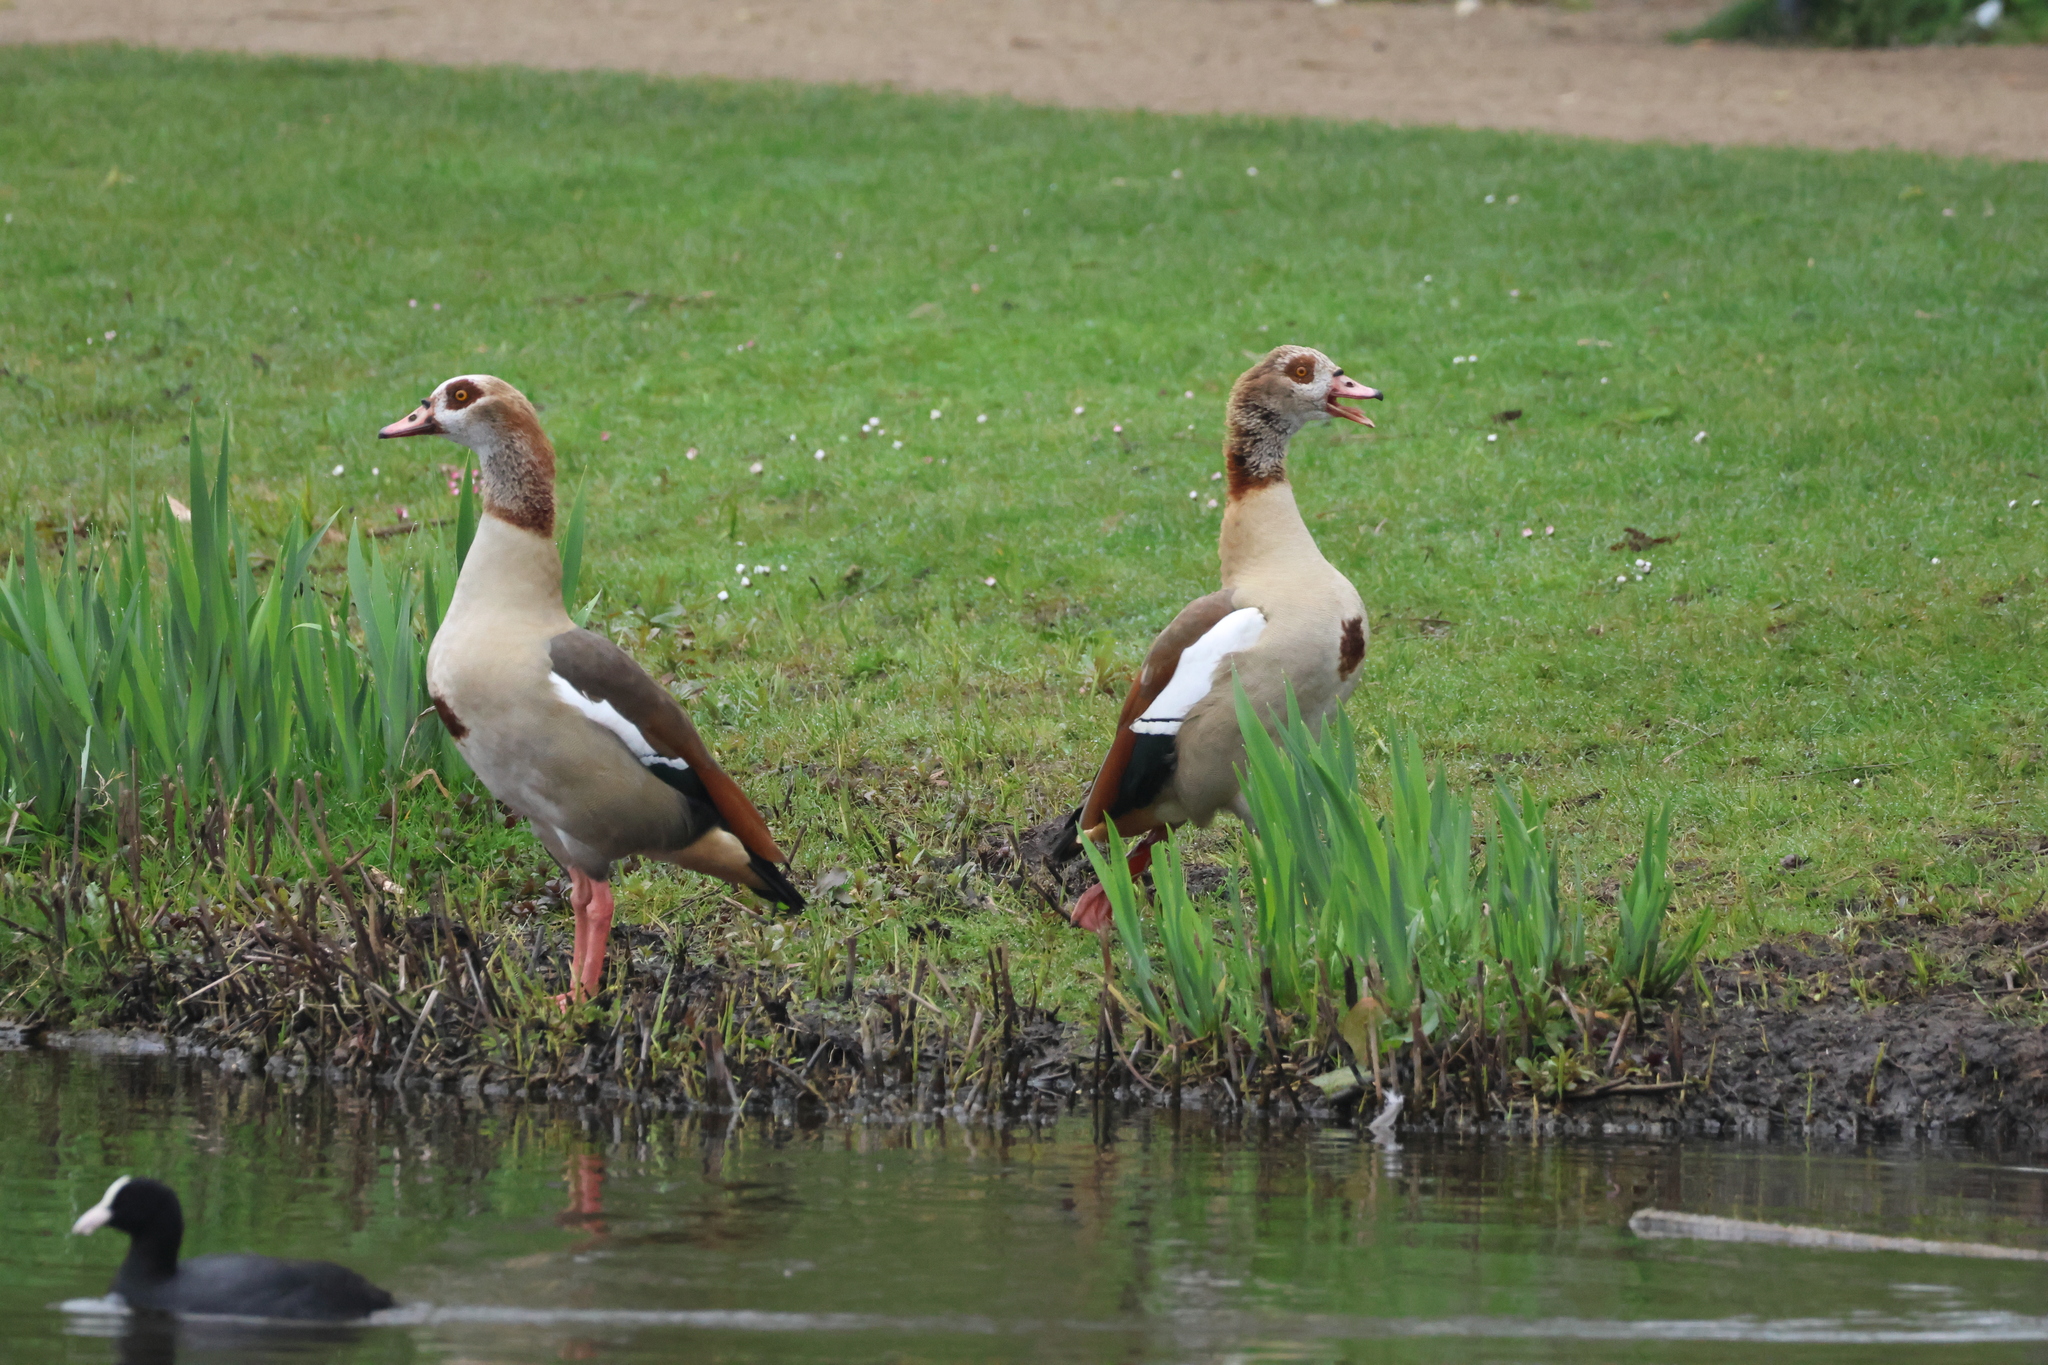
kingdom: Animalia
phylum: Chordata
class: Aves
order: Anseriformes
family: Anatidae
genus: Alopochen
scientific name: Alopochen aegyptiaca
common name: Egyptian goose
